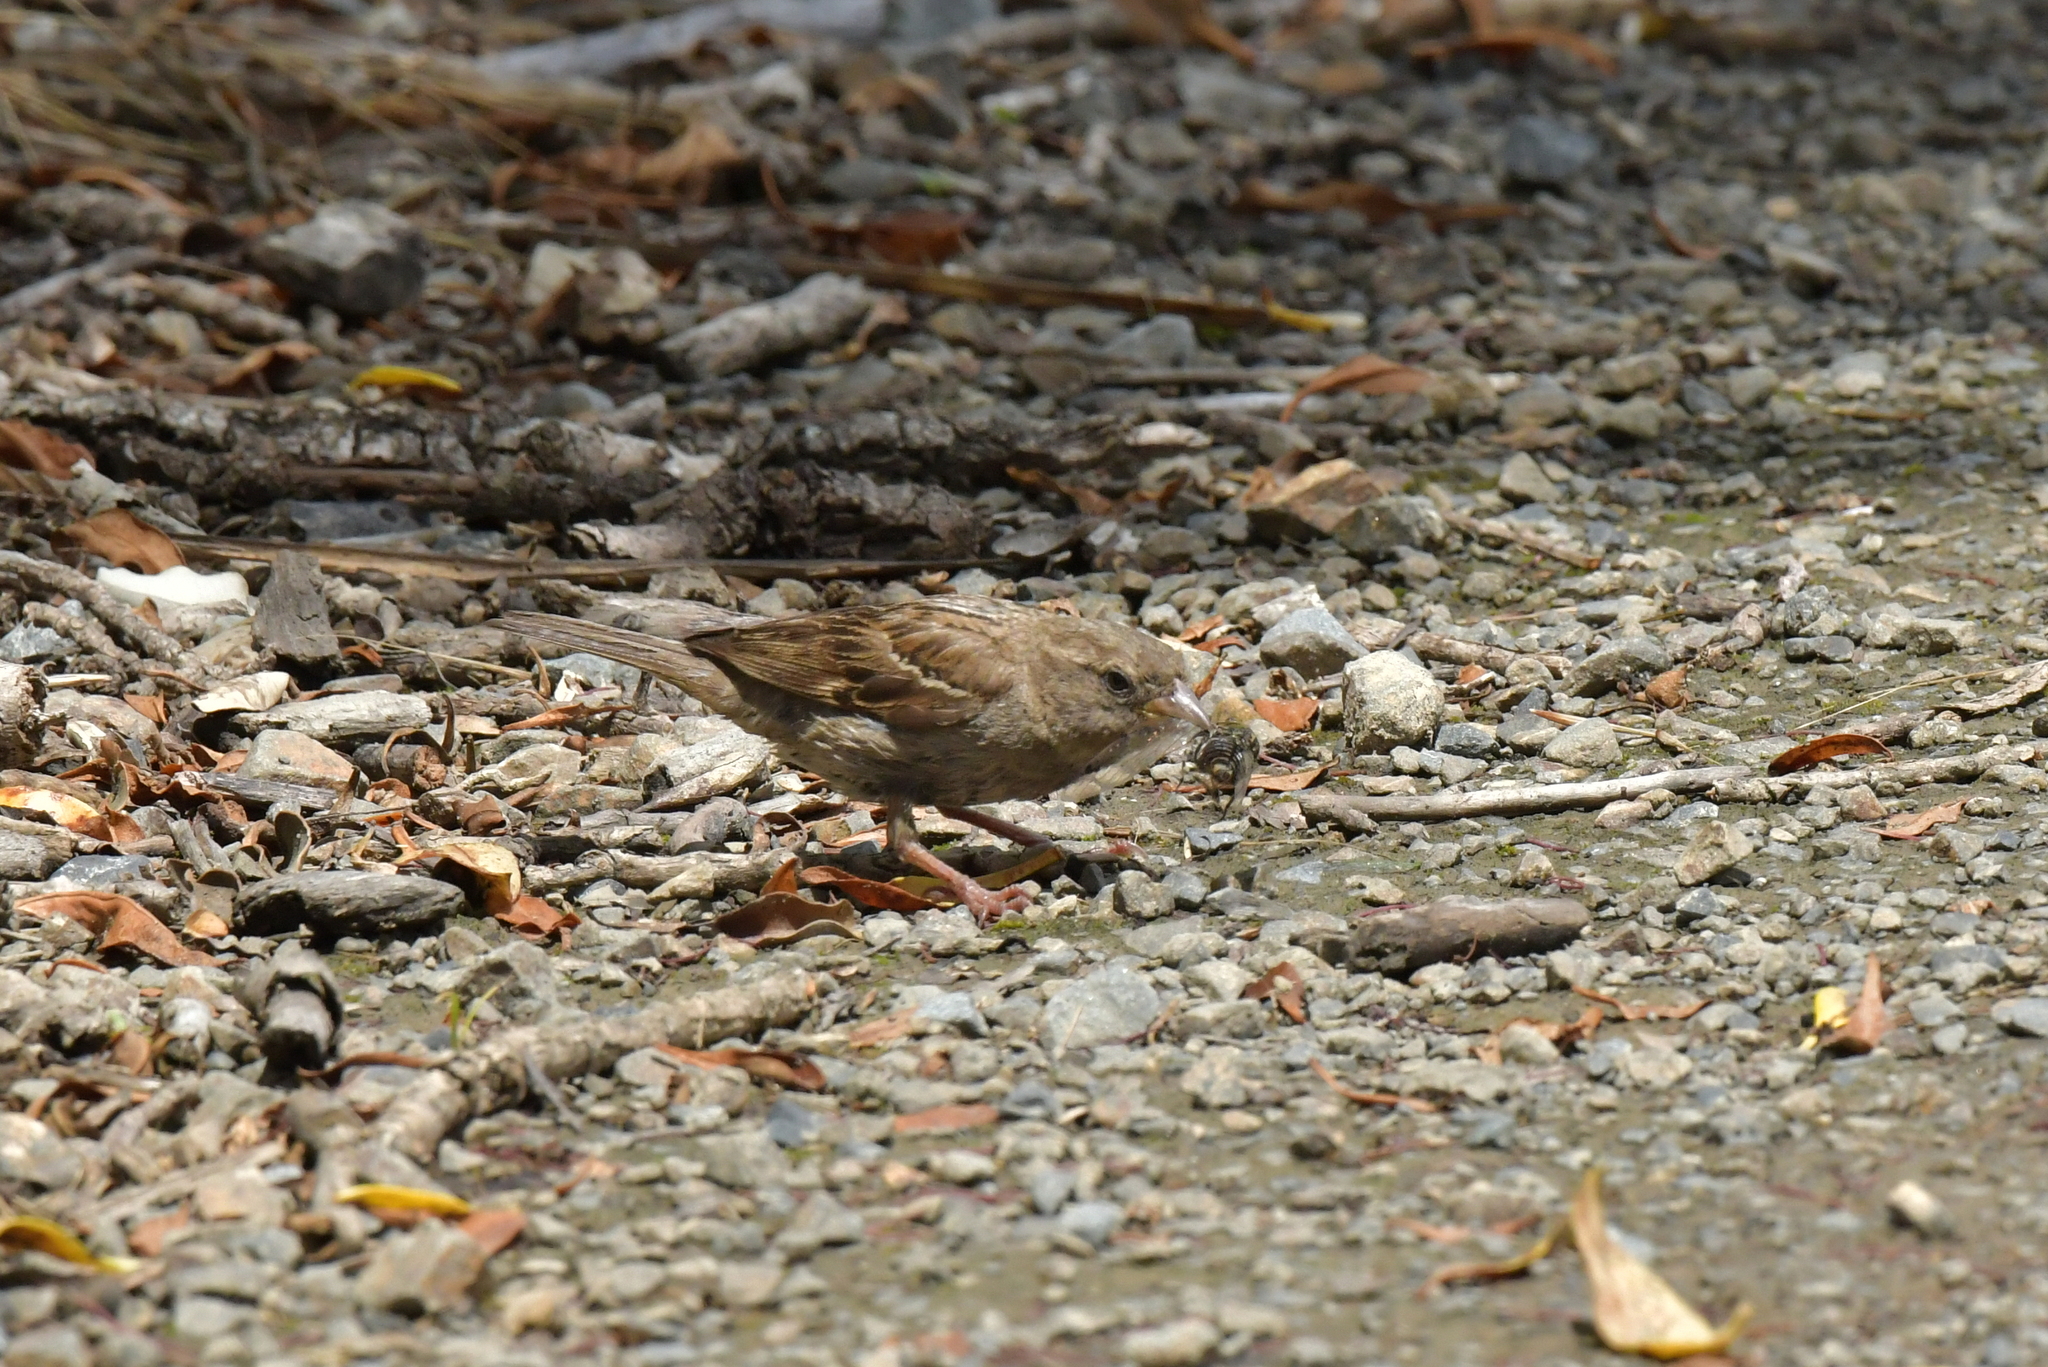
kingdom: Animalia
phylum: Chordata
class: Aves
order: Passeriformes
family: Passeridae
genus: Passer
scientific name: Passer domesticus
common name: House sparrow
